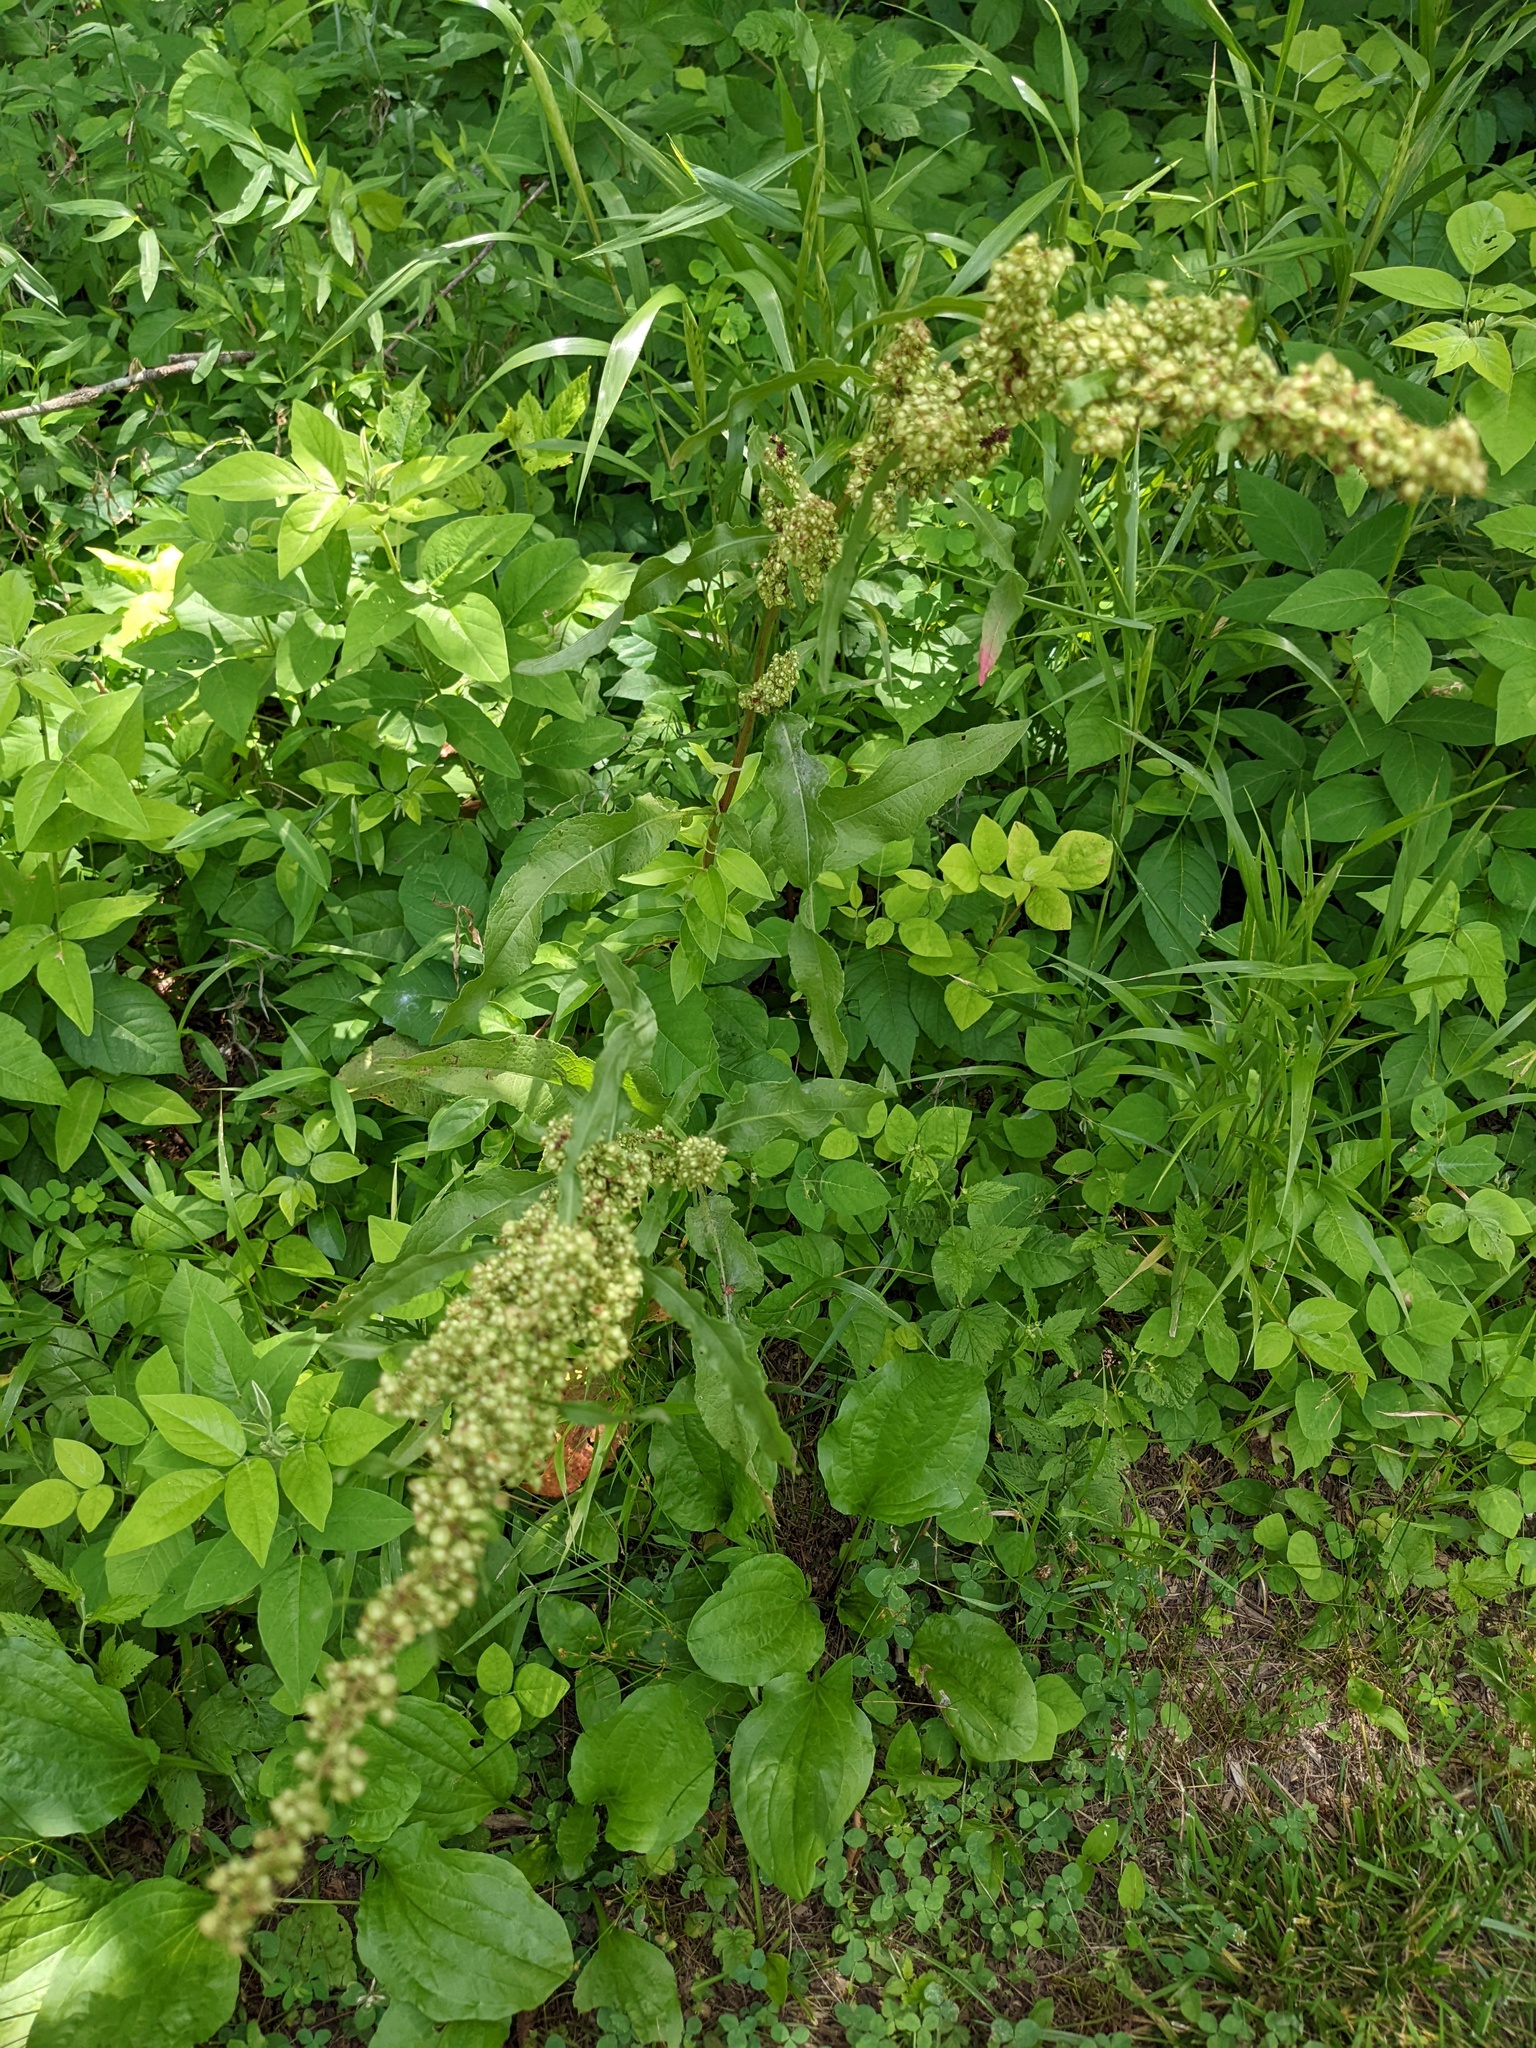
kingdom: Plantae
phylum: Tracheophyta
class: Magnoliopsida
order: Caryophyllales
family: Polygonaceae
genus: Rumex
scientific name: Rumex crispus
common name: Curled dock
